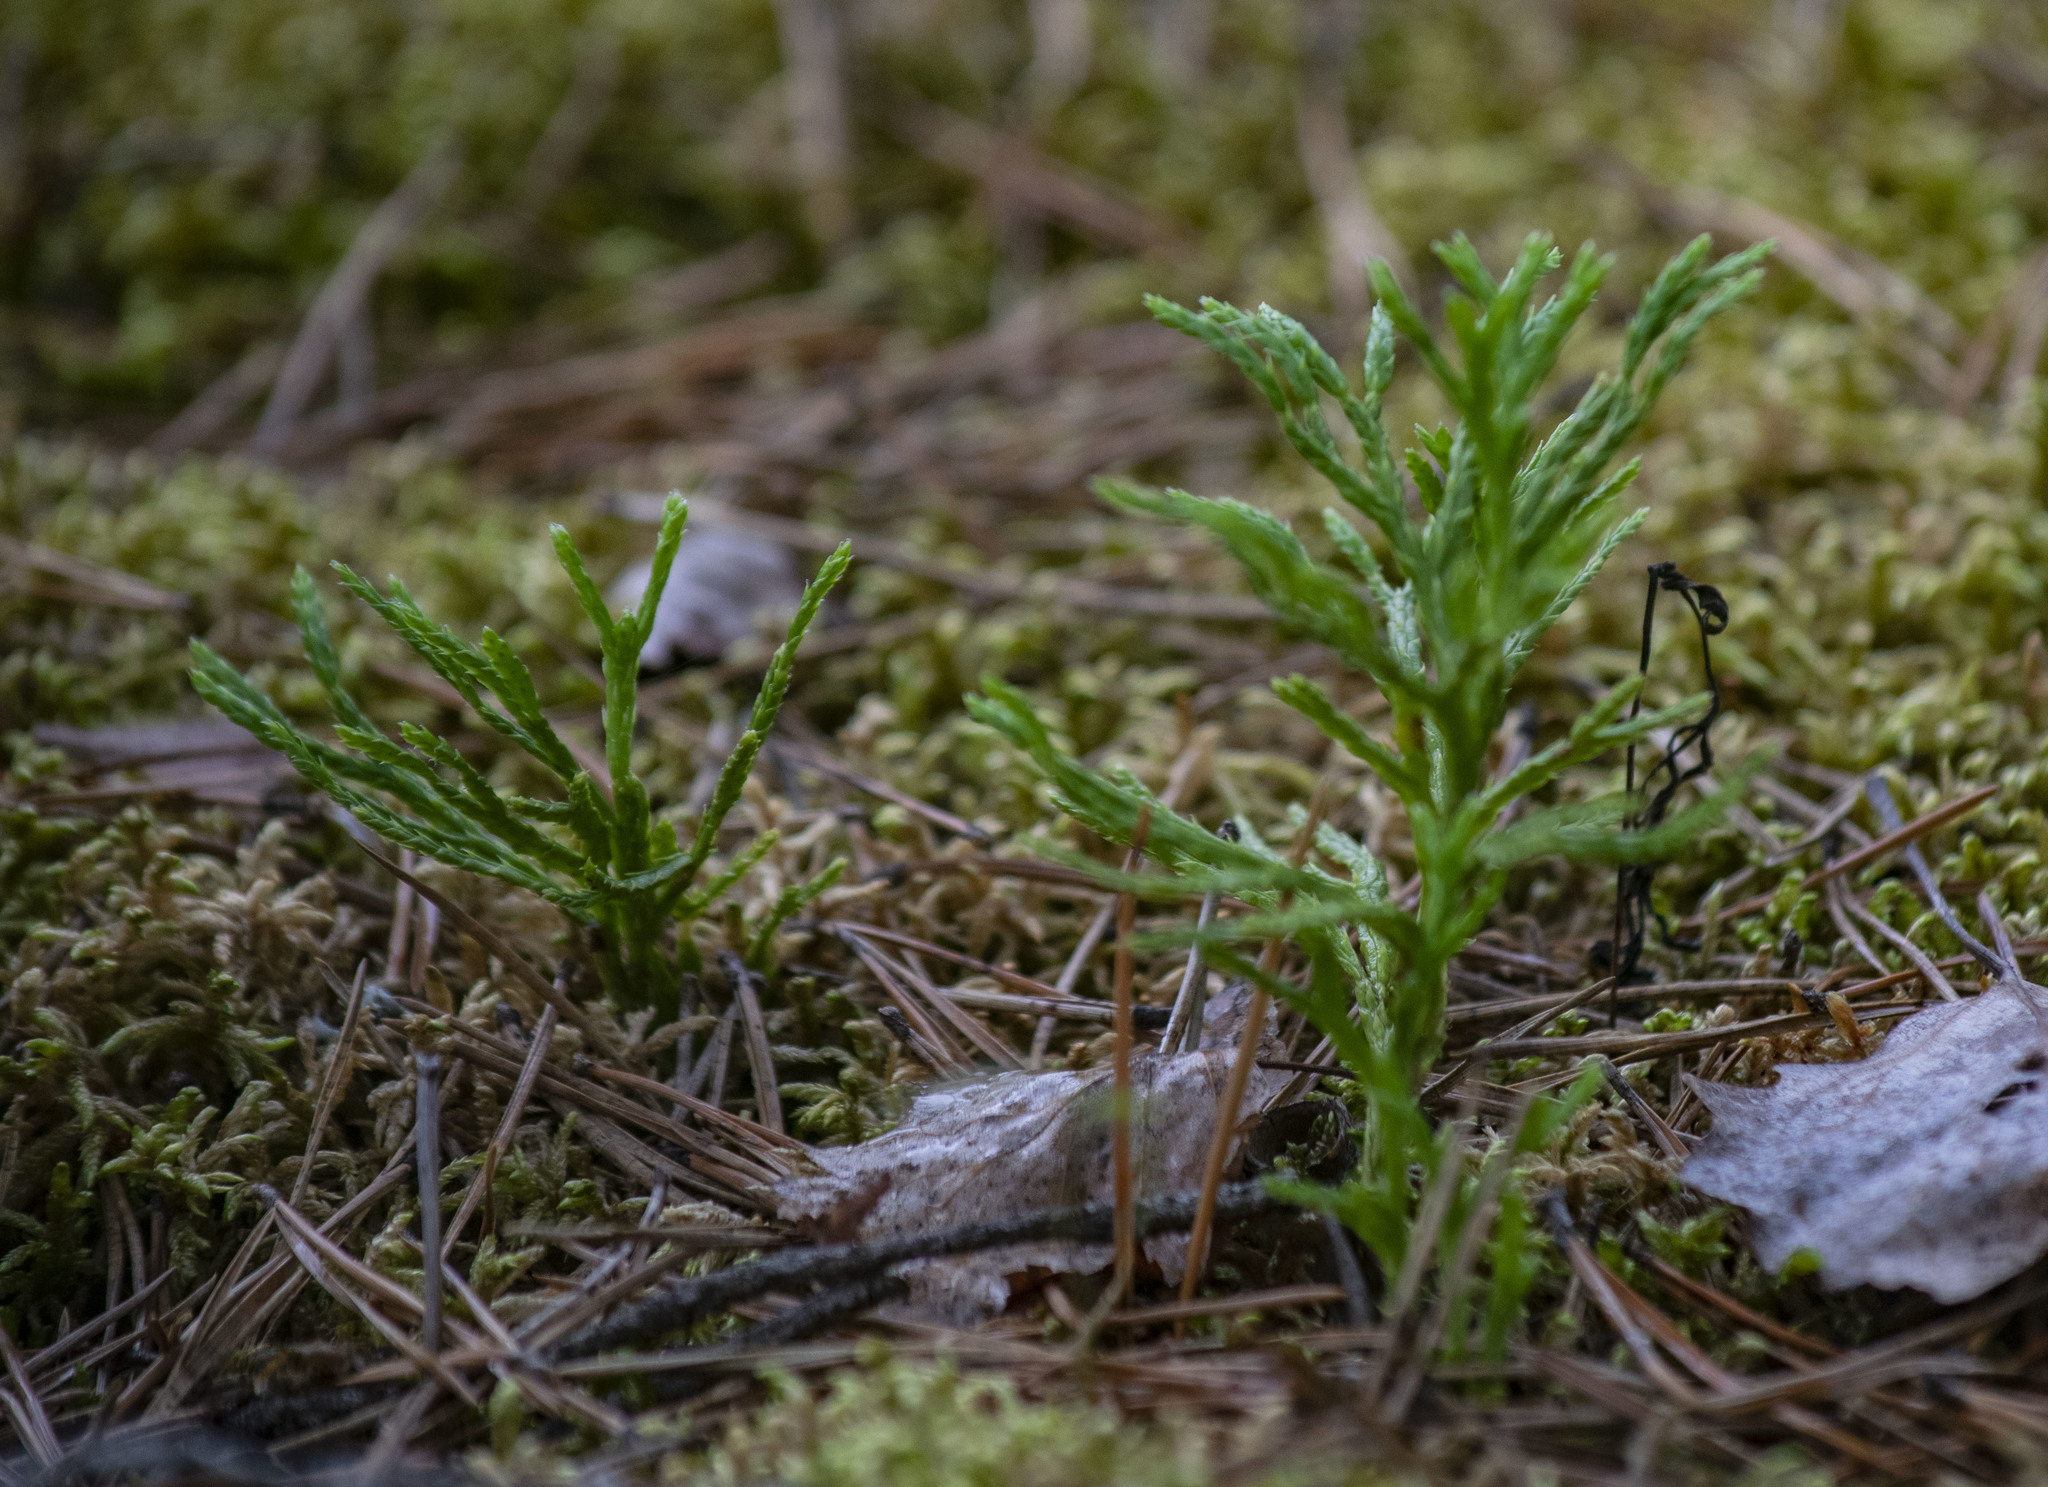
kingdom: Plantae
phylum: Tracheophyta
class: Lycopodiopsida
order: Lycopodiales
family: Lycopodiaceae
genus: Diphasiastrum
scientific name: Diphasiastrum complanatum
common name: Northern running-pine
